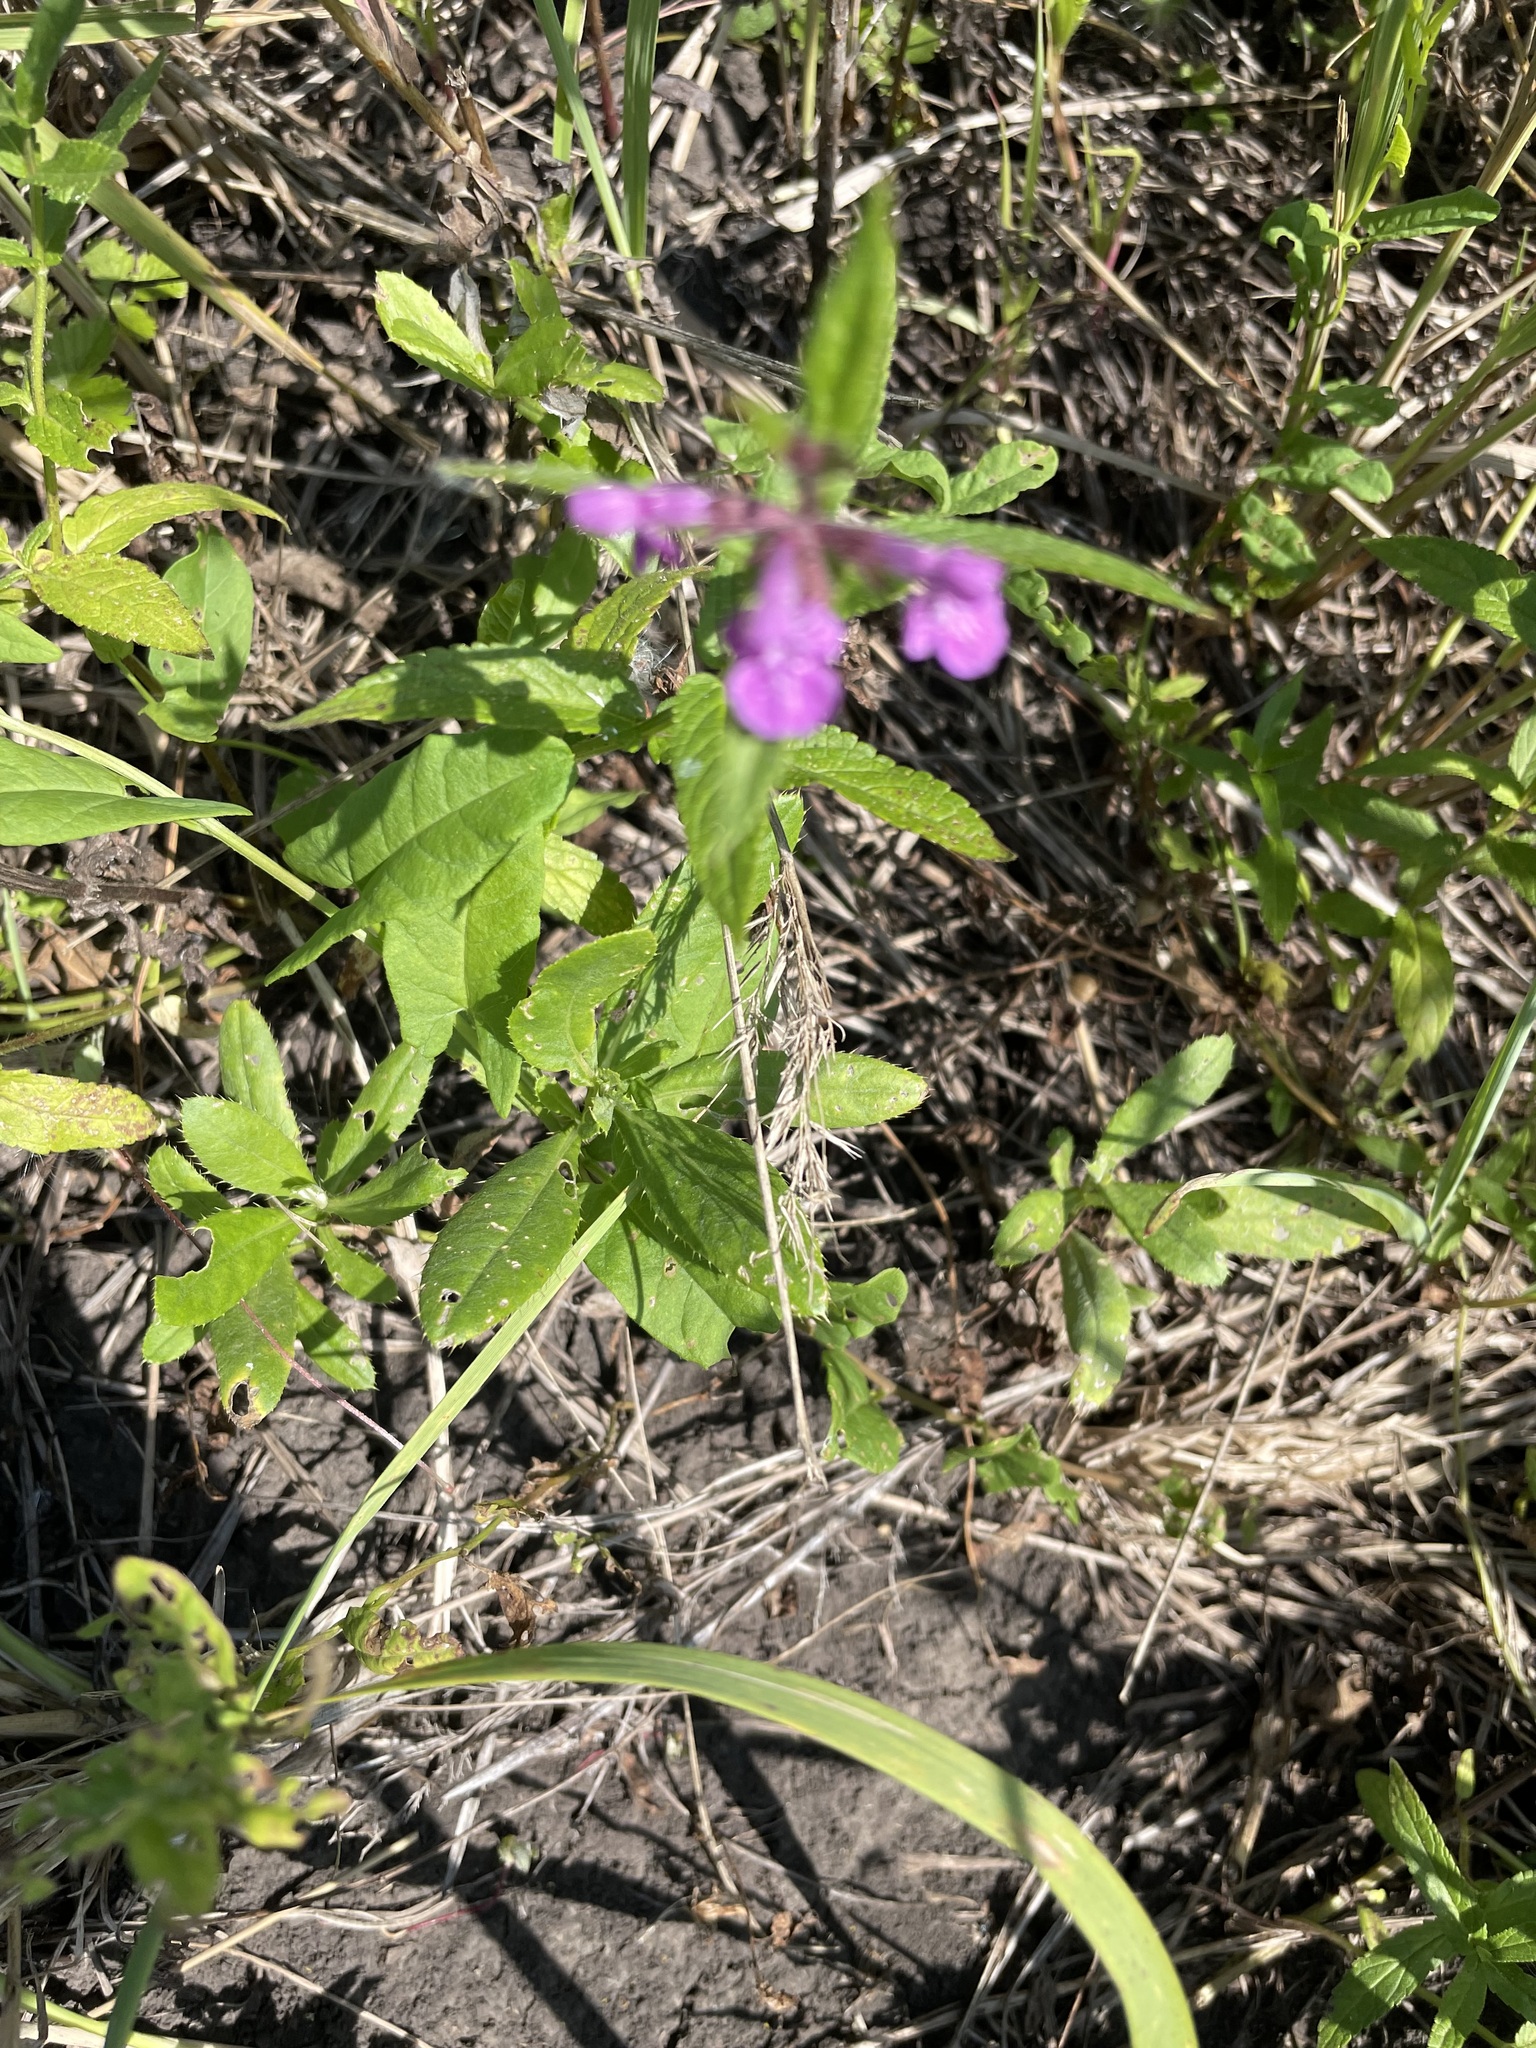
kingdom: Plantae
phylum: Tracheophyta
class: Magnoliopsida
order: Lamiales
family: Lamiaceae
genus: Stachys
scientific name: Stachys palustris
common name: Marsh woundwort
